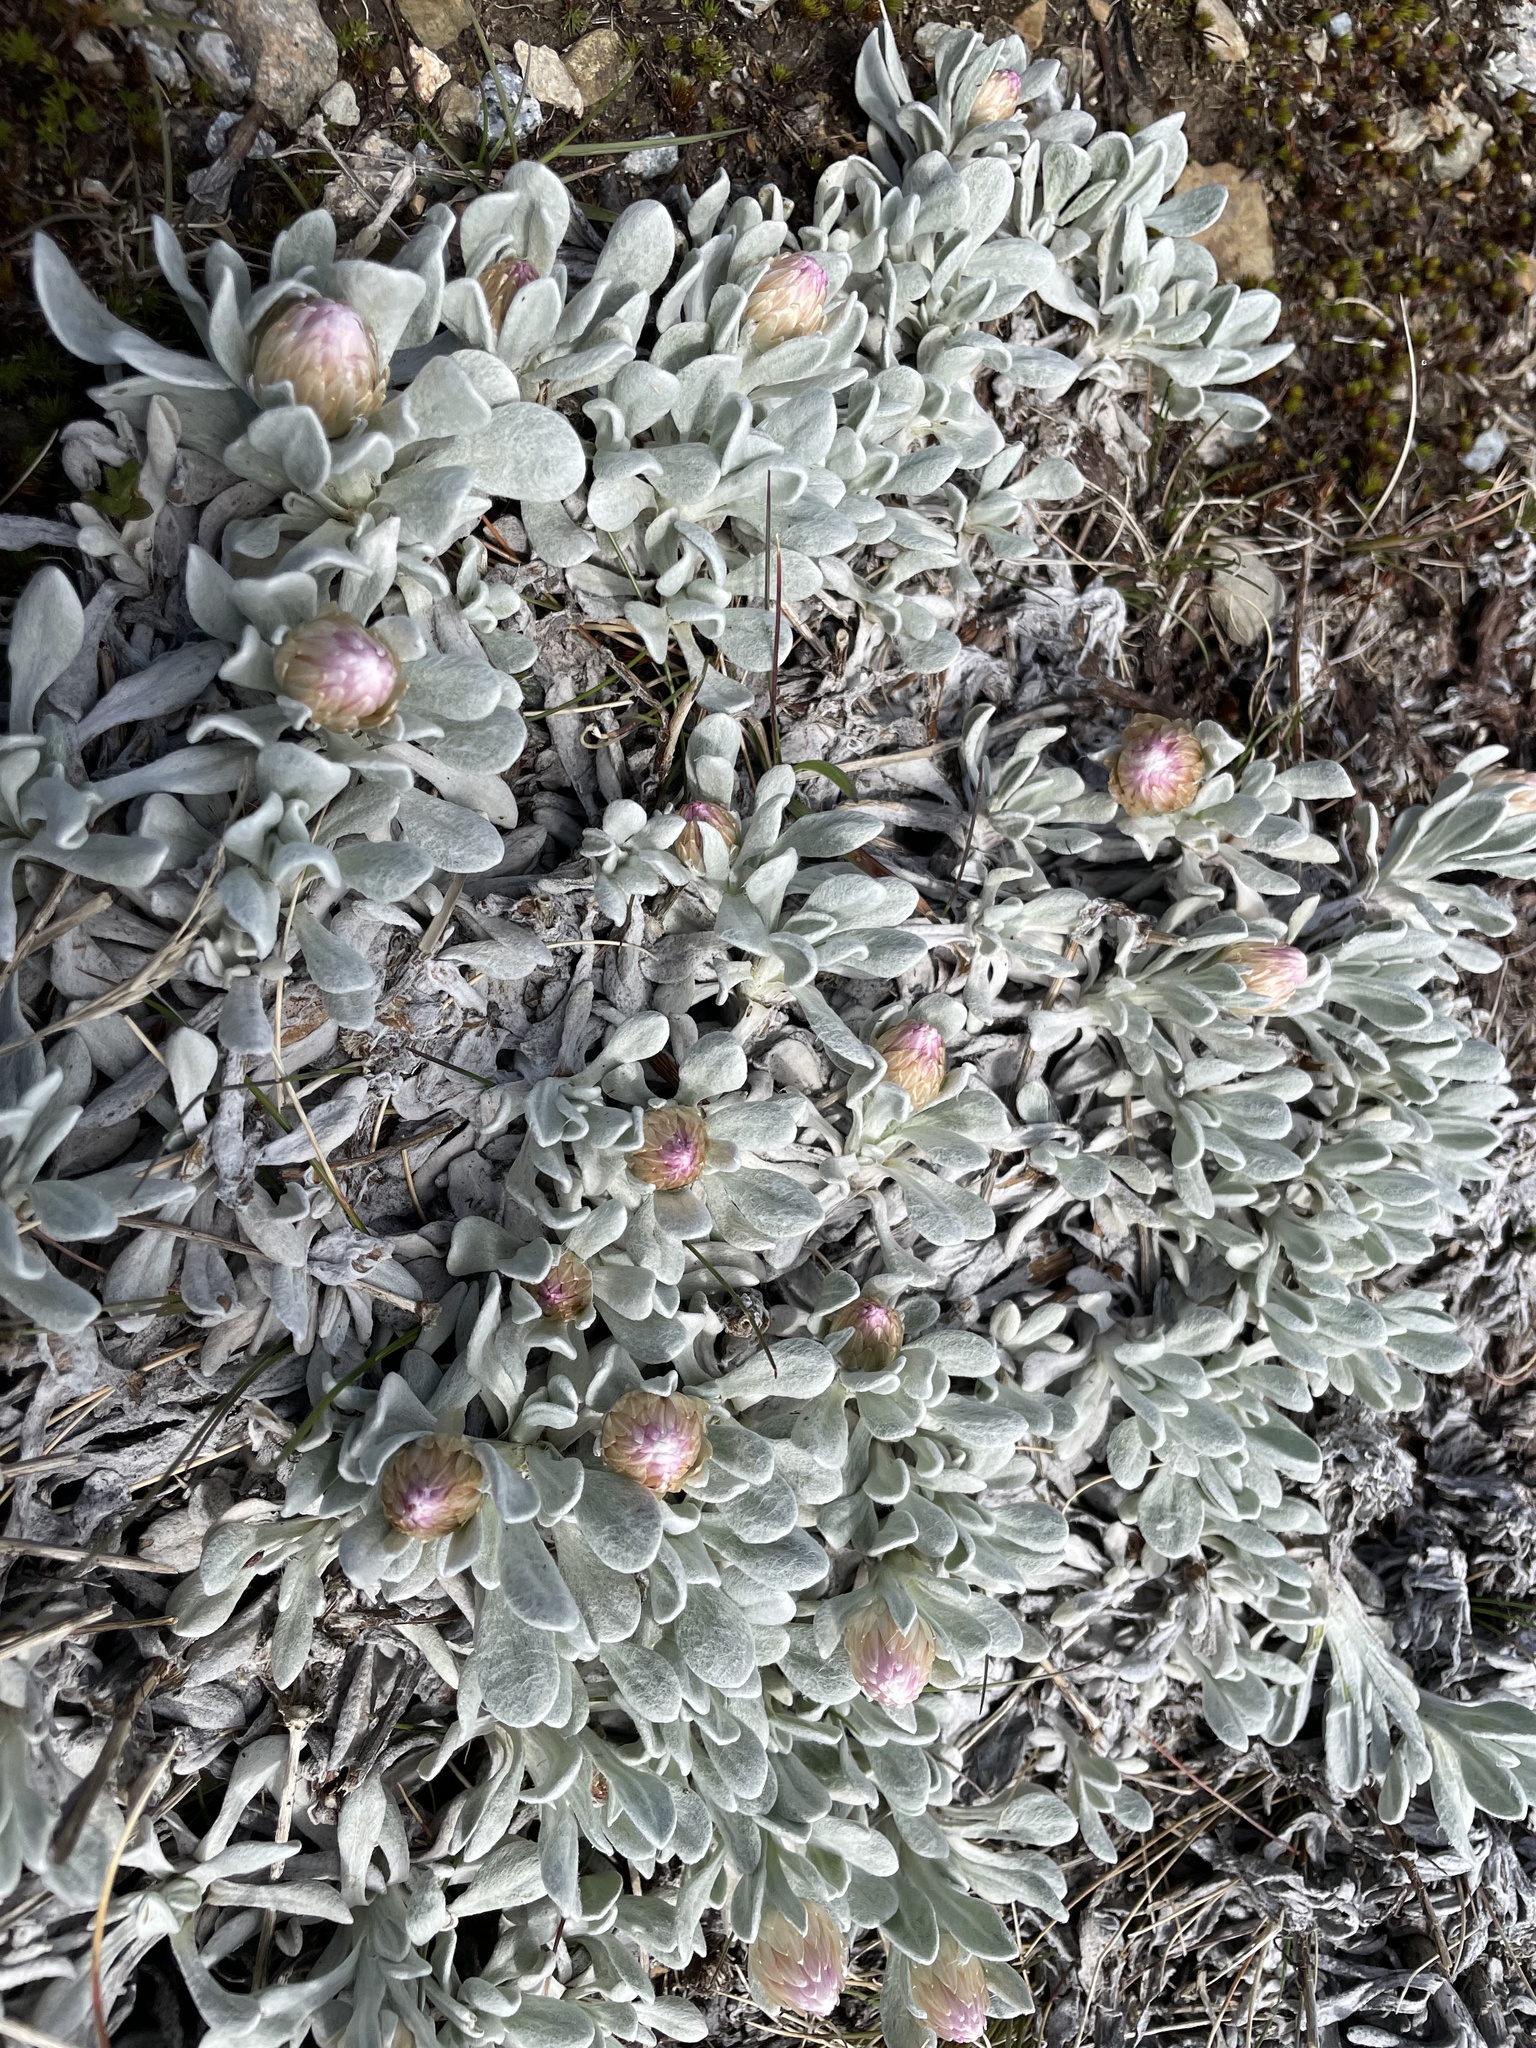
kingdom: Plantae
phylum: Tracheophyta
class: Magnoliopsida
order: Asterales
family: Asteraceae
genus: Leucochrysum
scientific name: Leucochrysum alpinum
